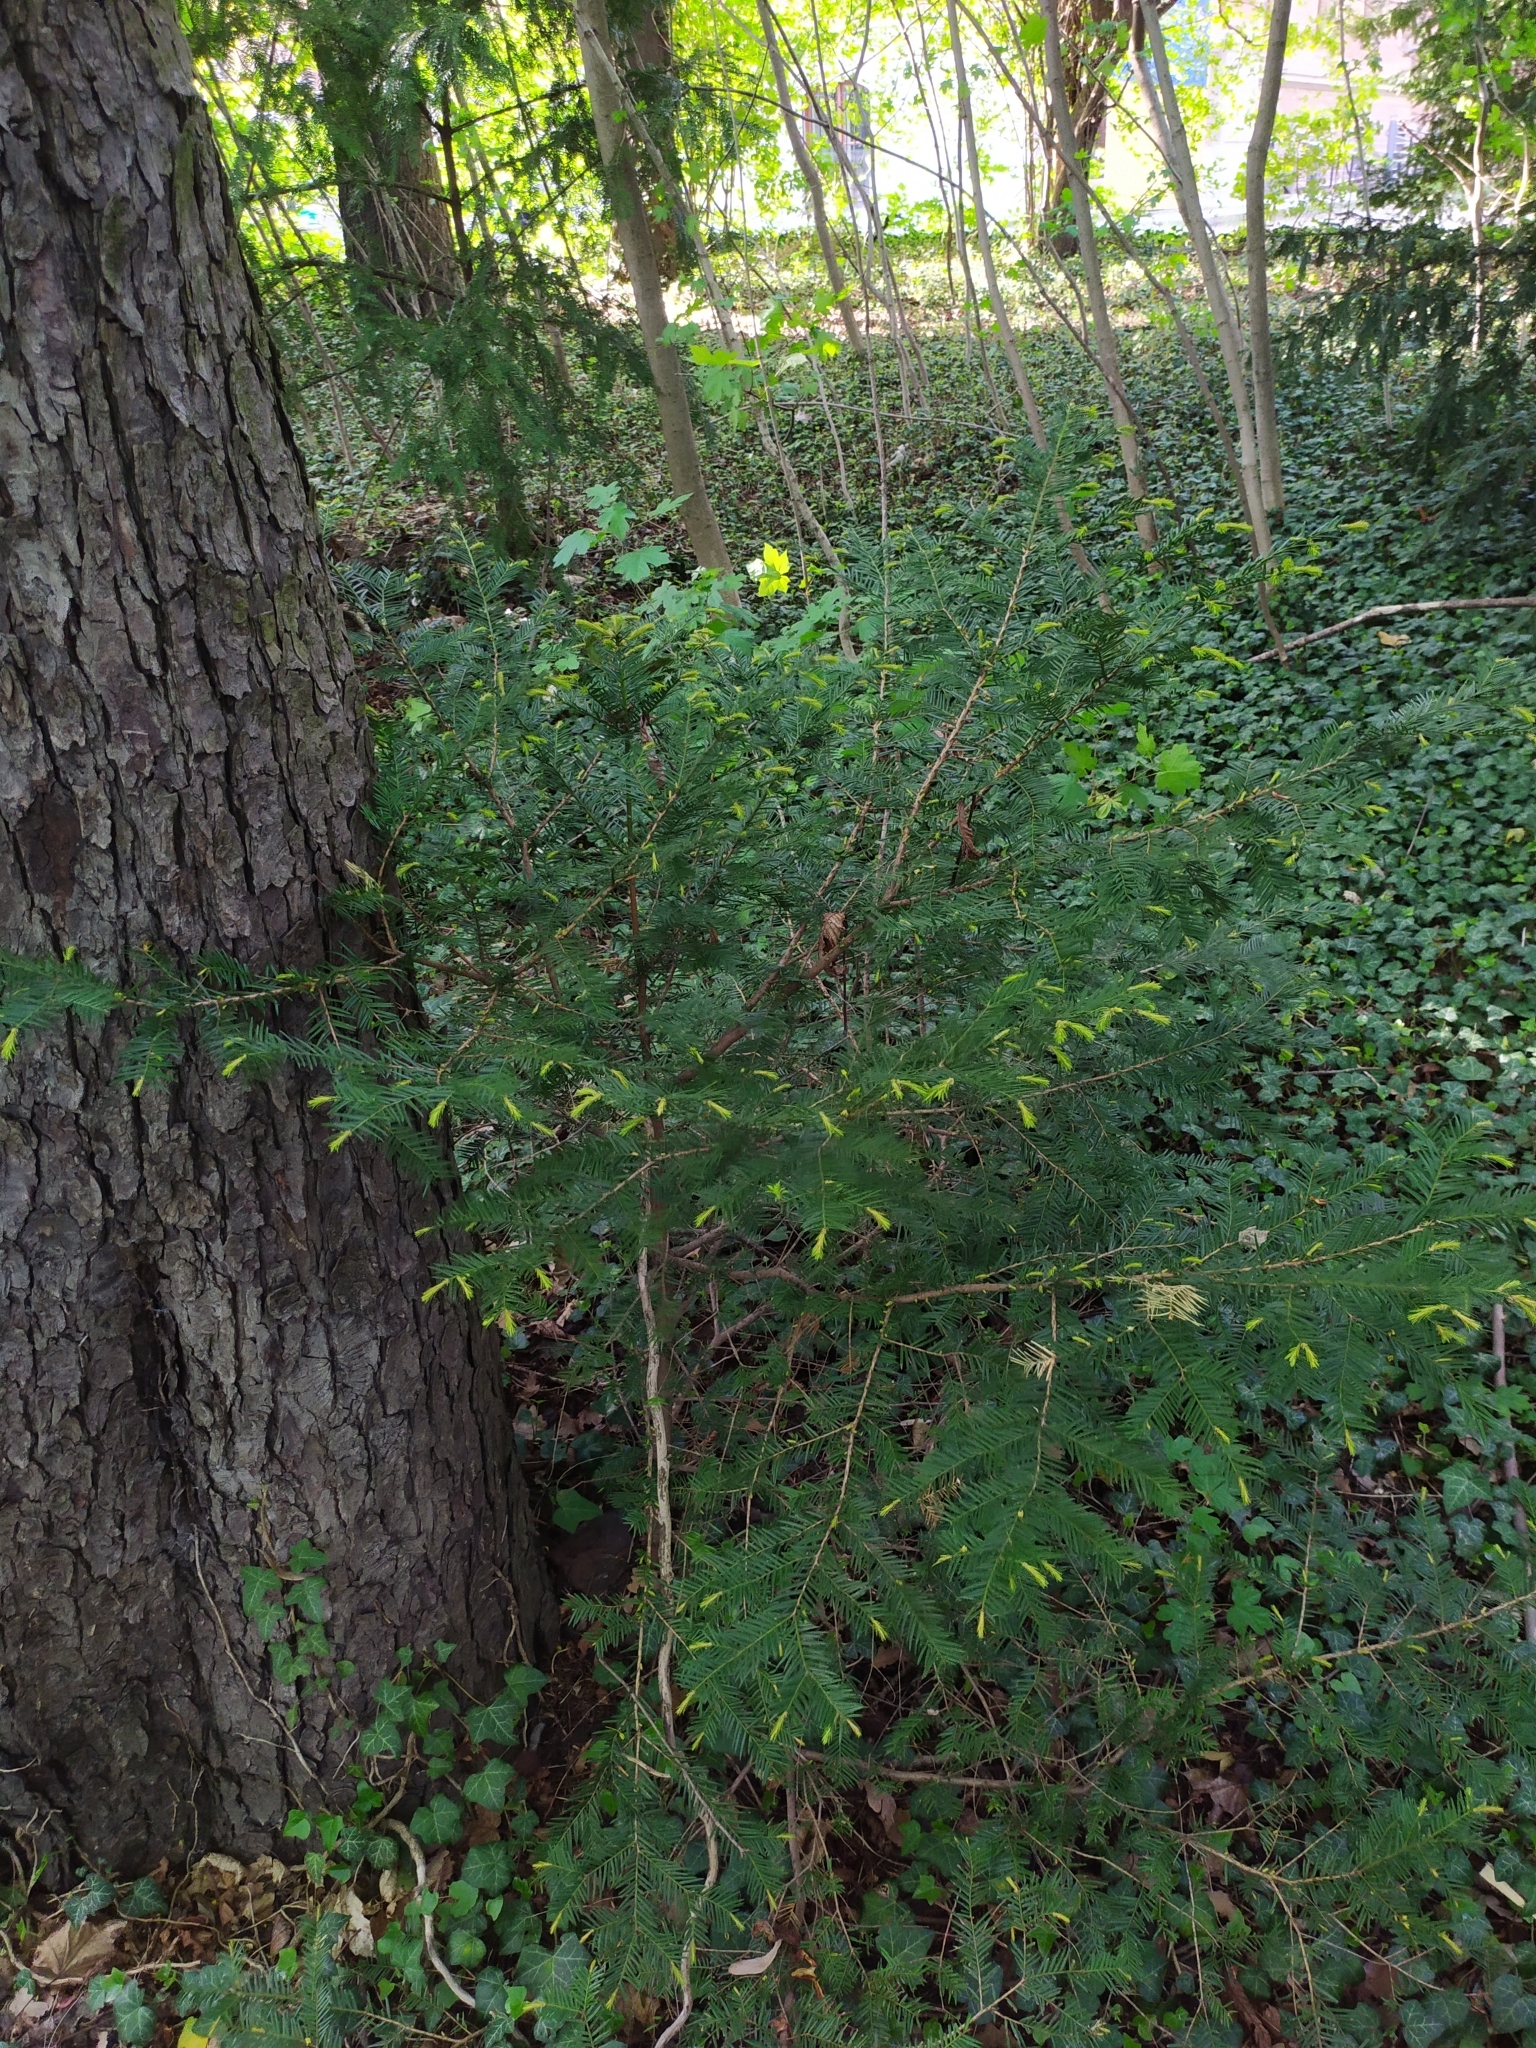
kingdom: Plantae
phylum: Tracheophyta
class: Pinopsida
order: Pinales
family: Taxaceae
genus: Taxus
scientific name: Taxus baccata
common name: Yew
